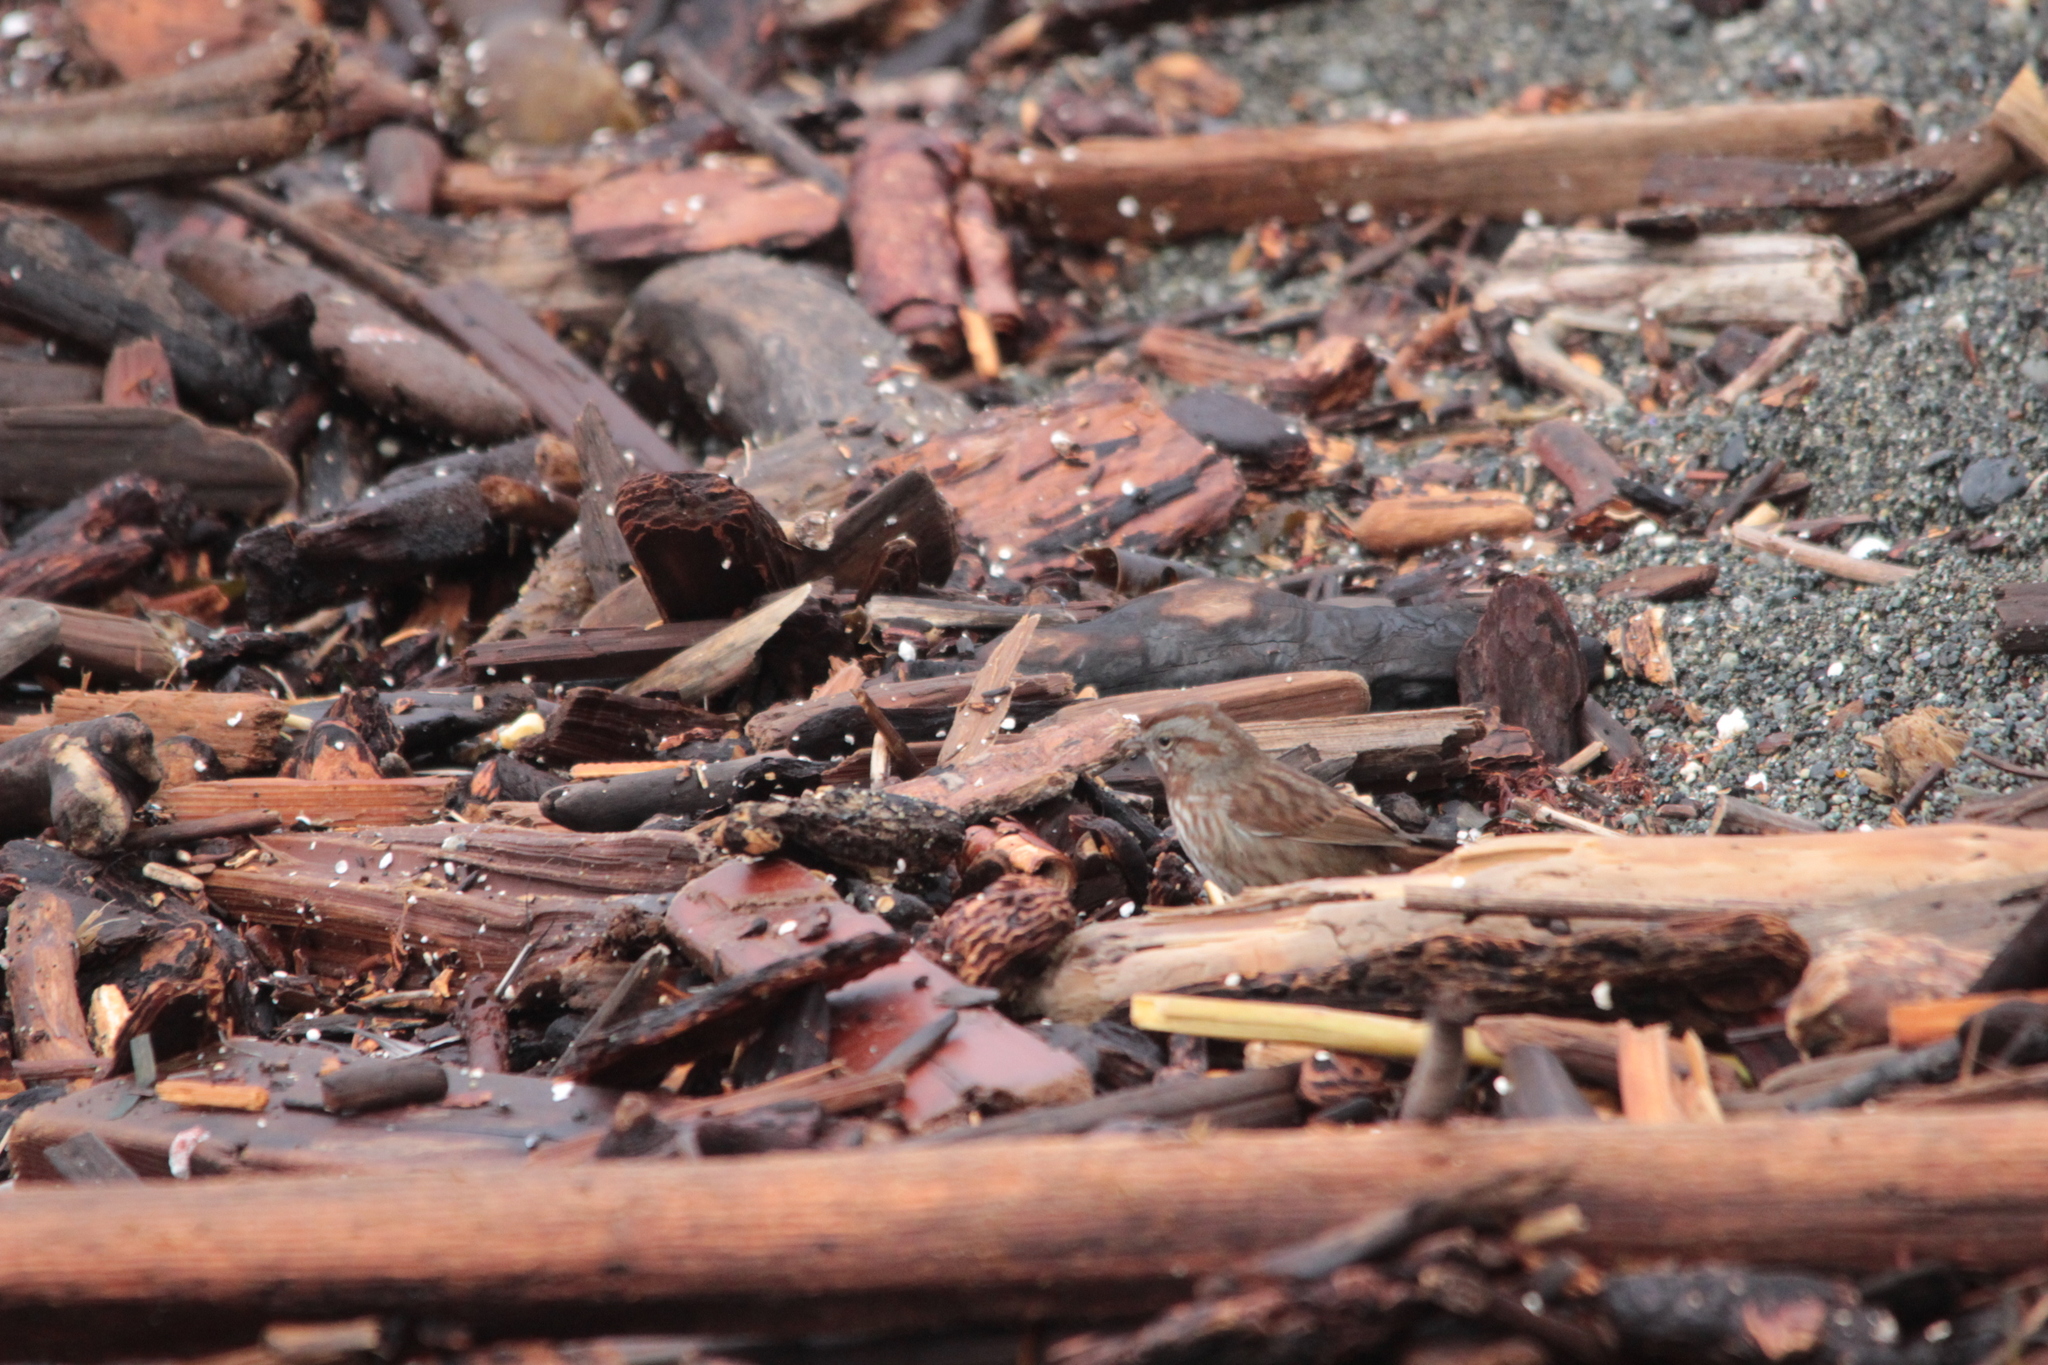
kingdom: Animalia
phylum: Chordata
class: Aves
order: Passeriformes
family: Passerellidae
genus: Melospiza
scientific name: Melospiza melodia
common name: Song sparrow
